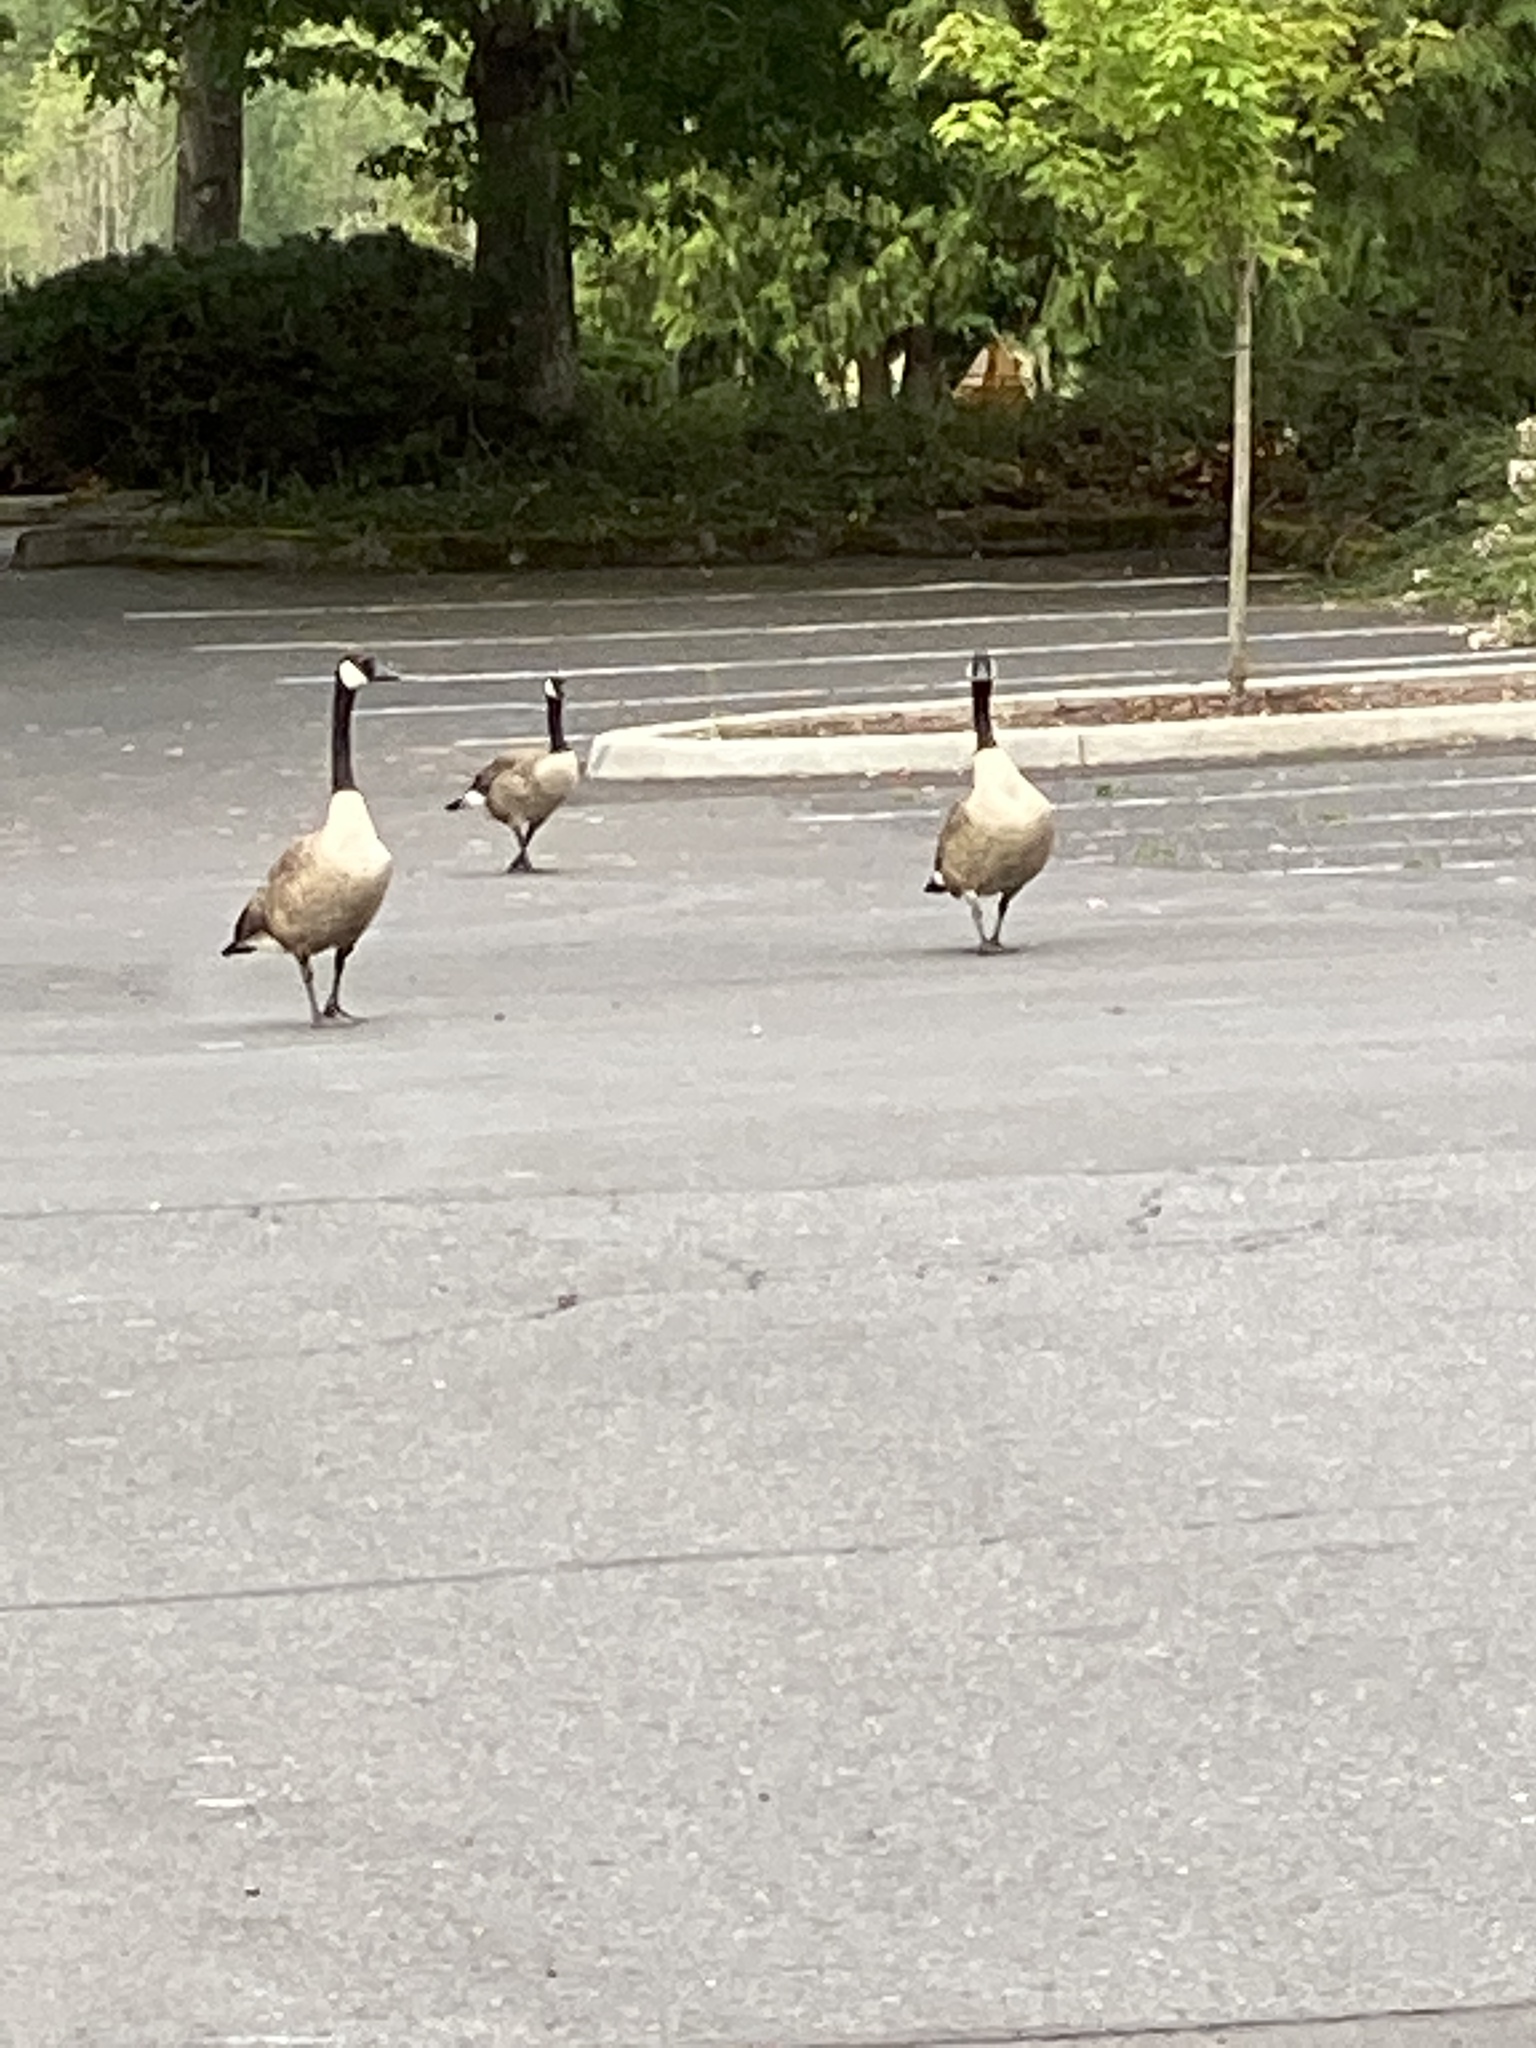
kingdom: Animalia
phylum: Chordata
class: Aves
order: Anseriformes
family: Anatidae
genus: Branta
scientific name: Branta canadensis
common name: Canada goose
